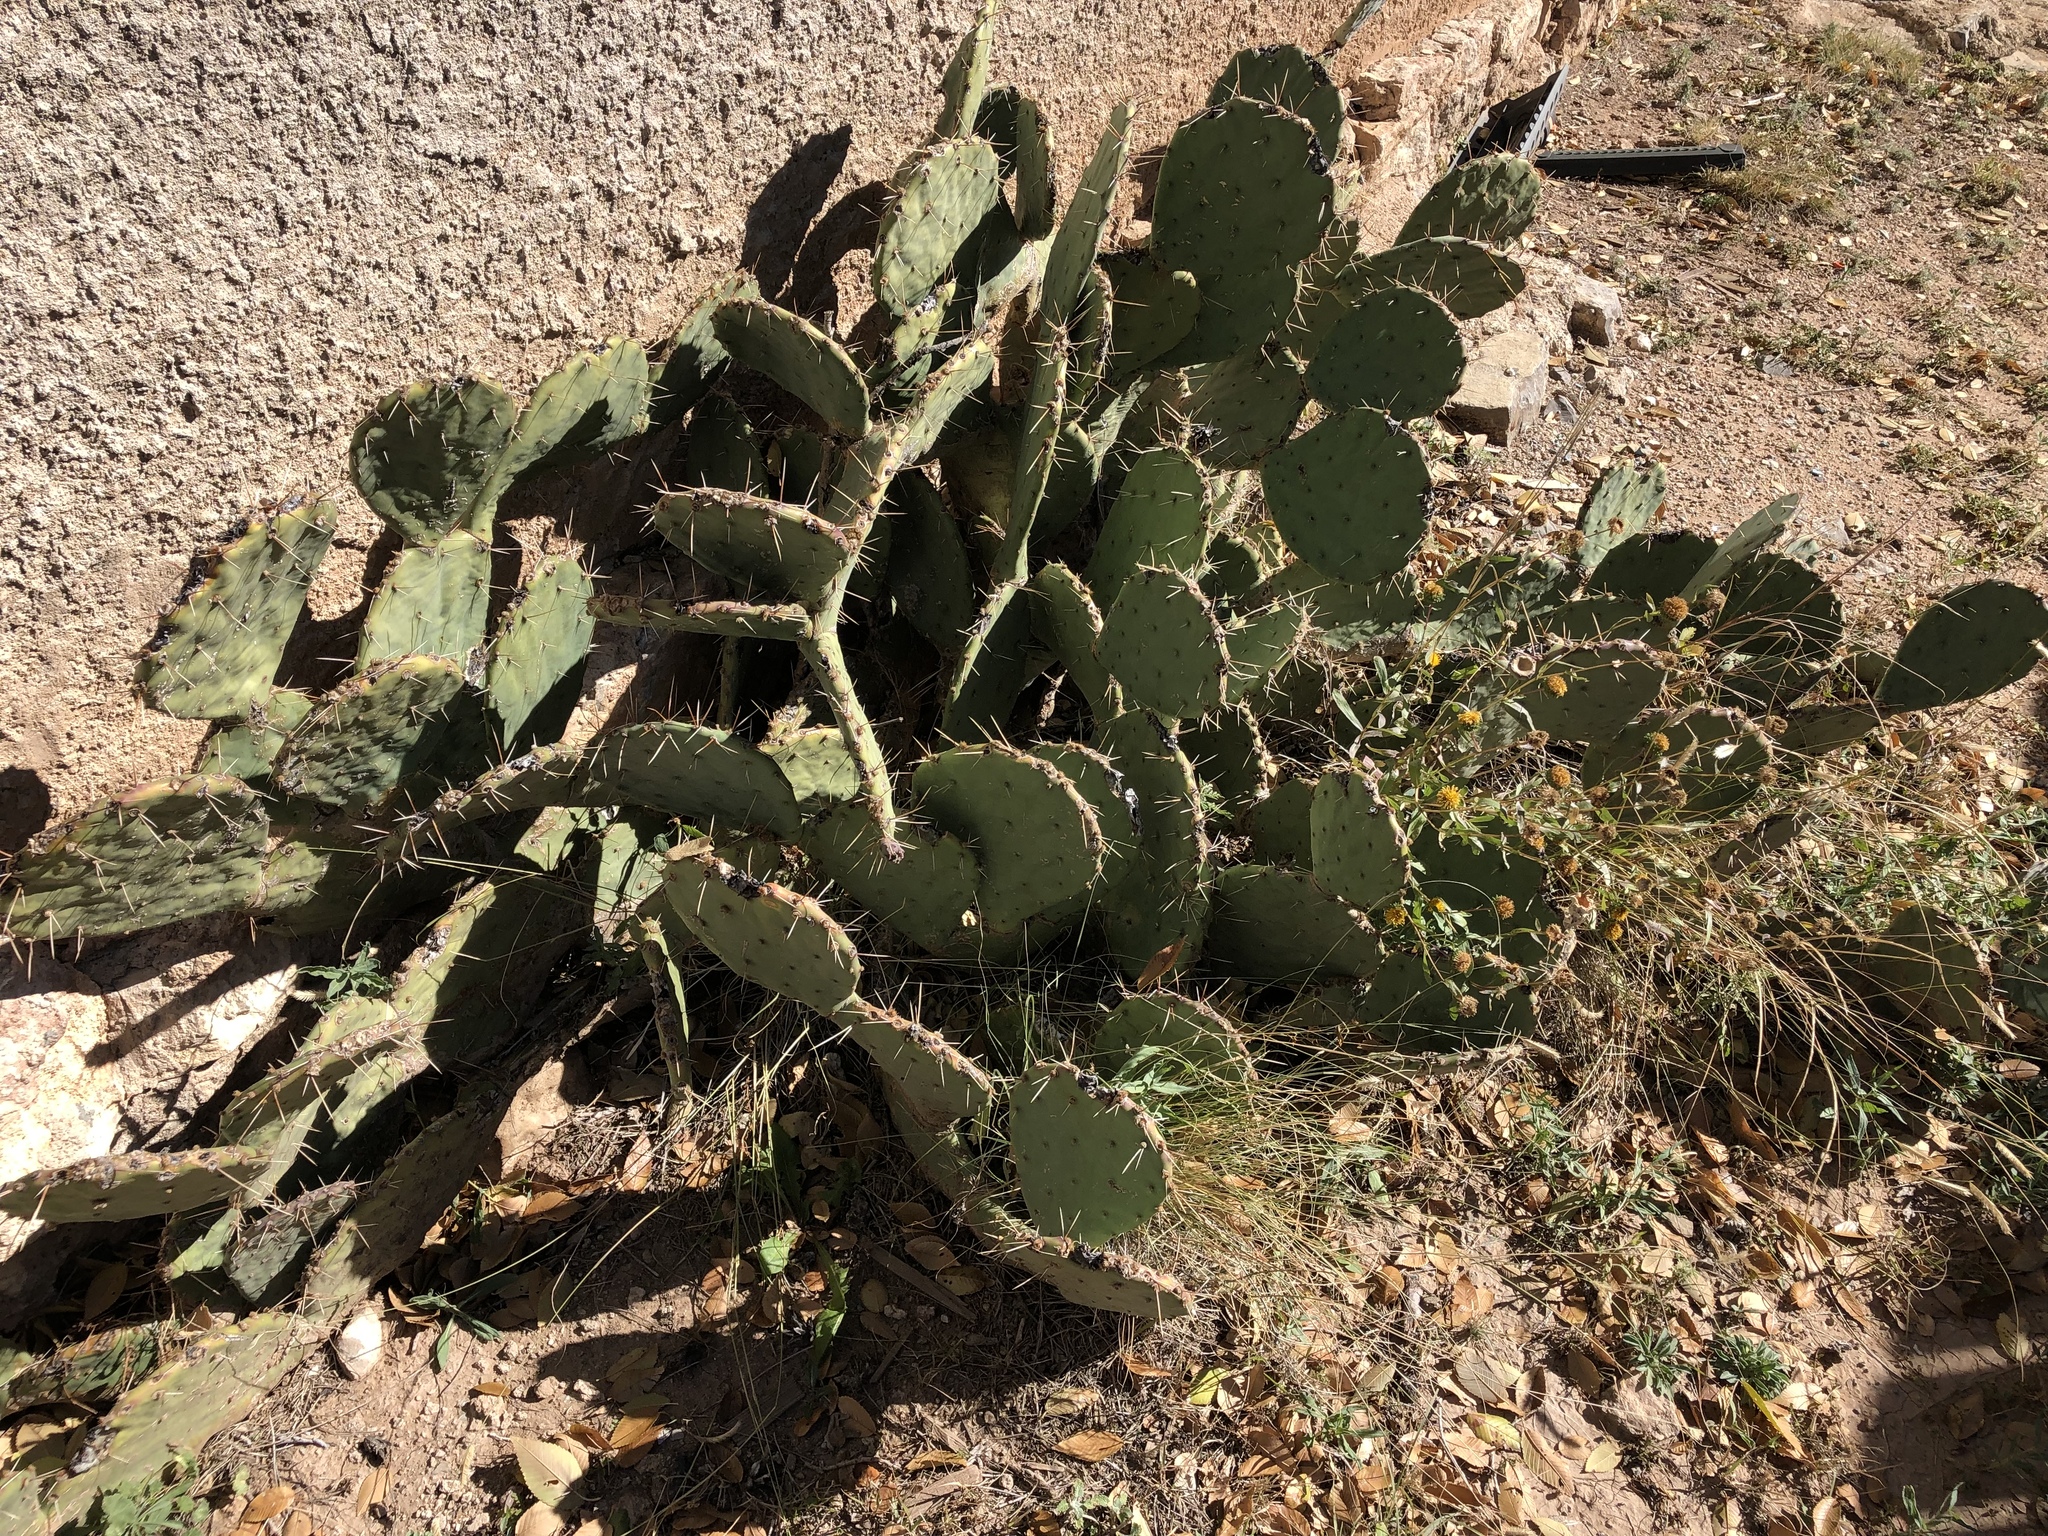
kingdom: Plantae
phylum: Tracheophyta
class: Magnoliopsida
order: Caryophyllales
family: Cactaceae
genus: Opuntia
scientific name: Opuntia orbiculata
